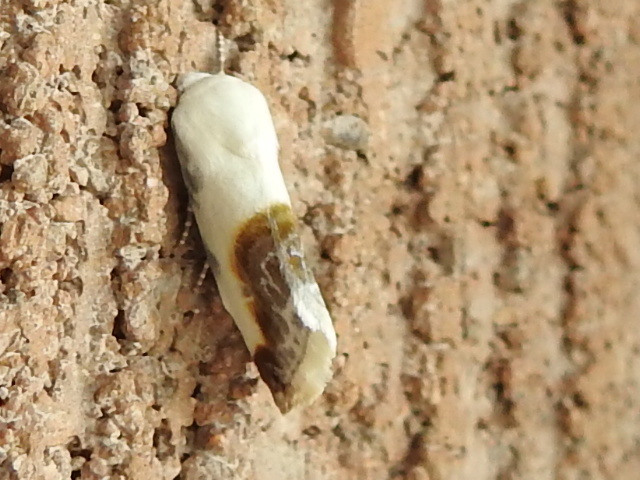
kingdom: Animalia
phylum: Arthropoda
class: Insecta
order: Lepidoptera
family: Noctuidae
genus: Acontia
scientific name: Acontia cretata
